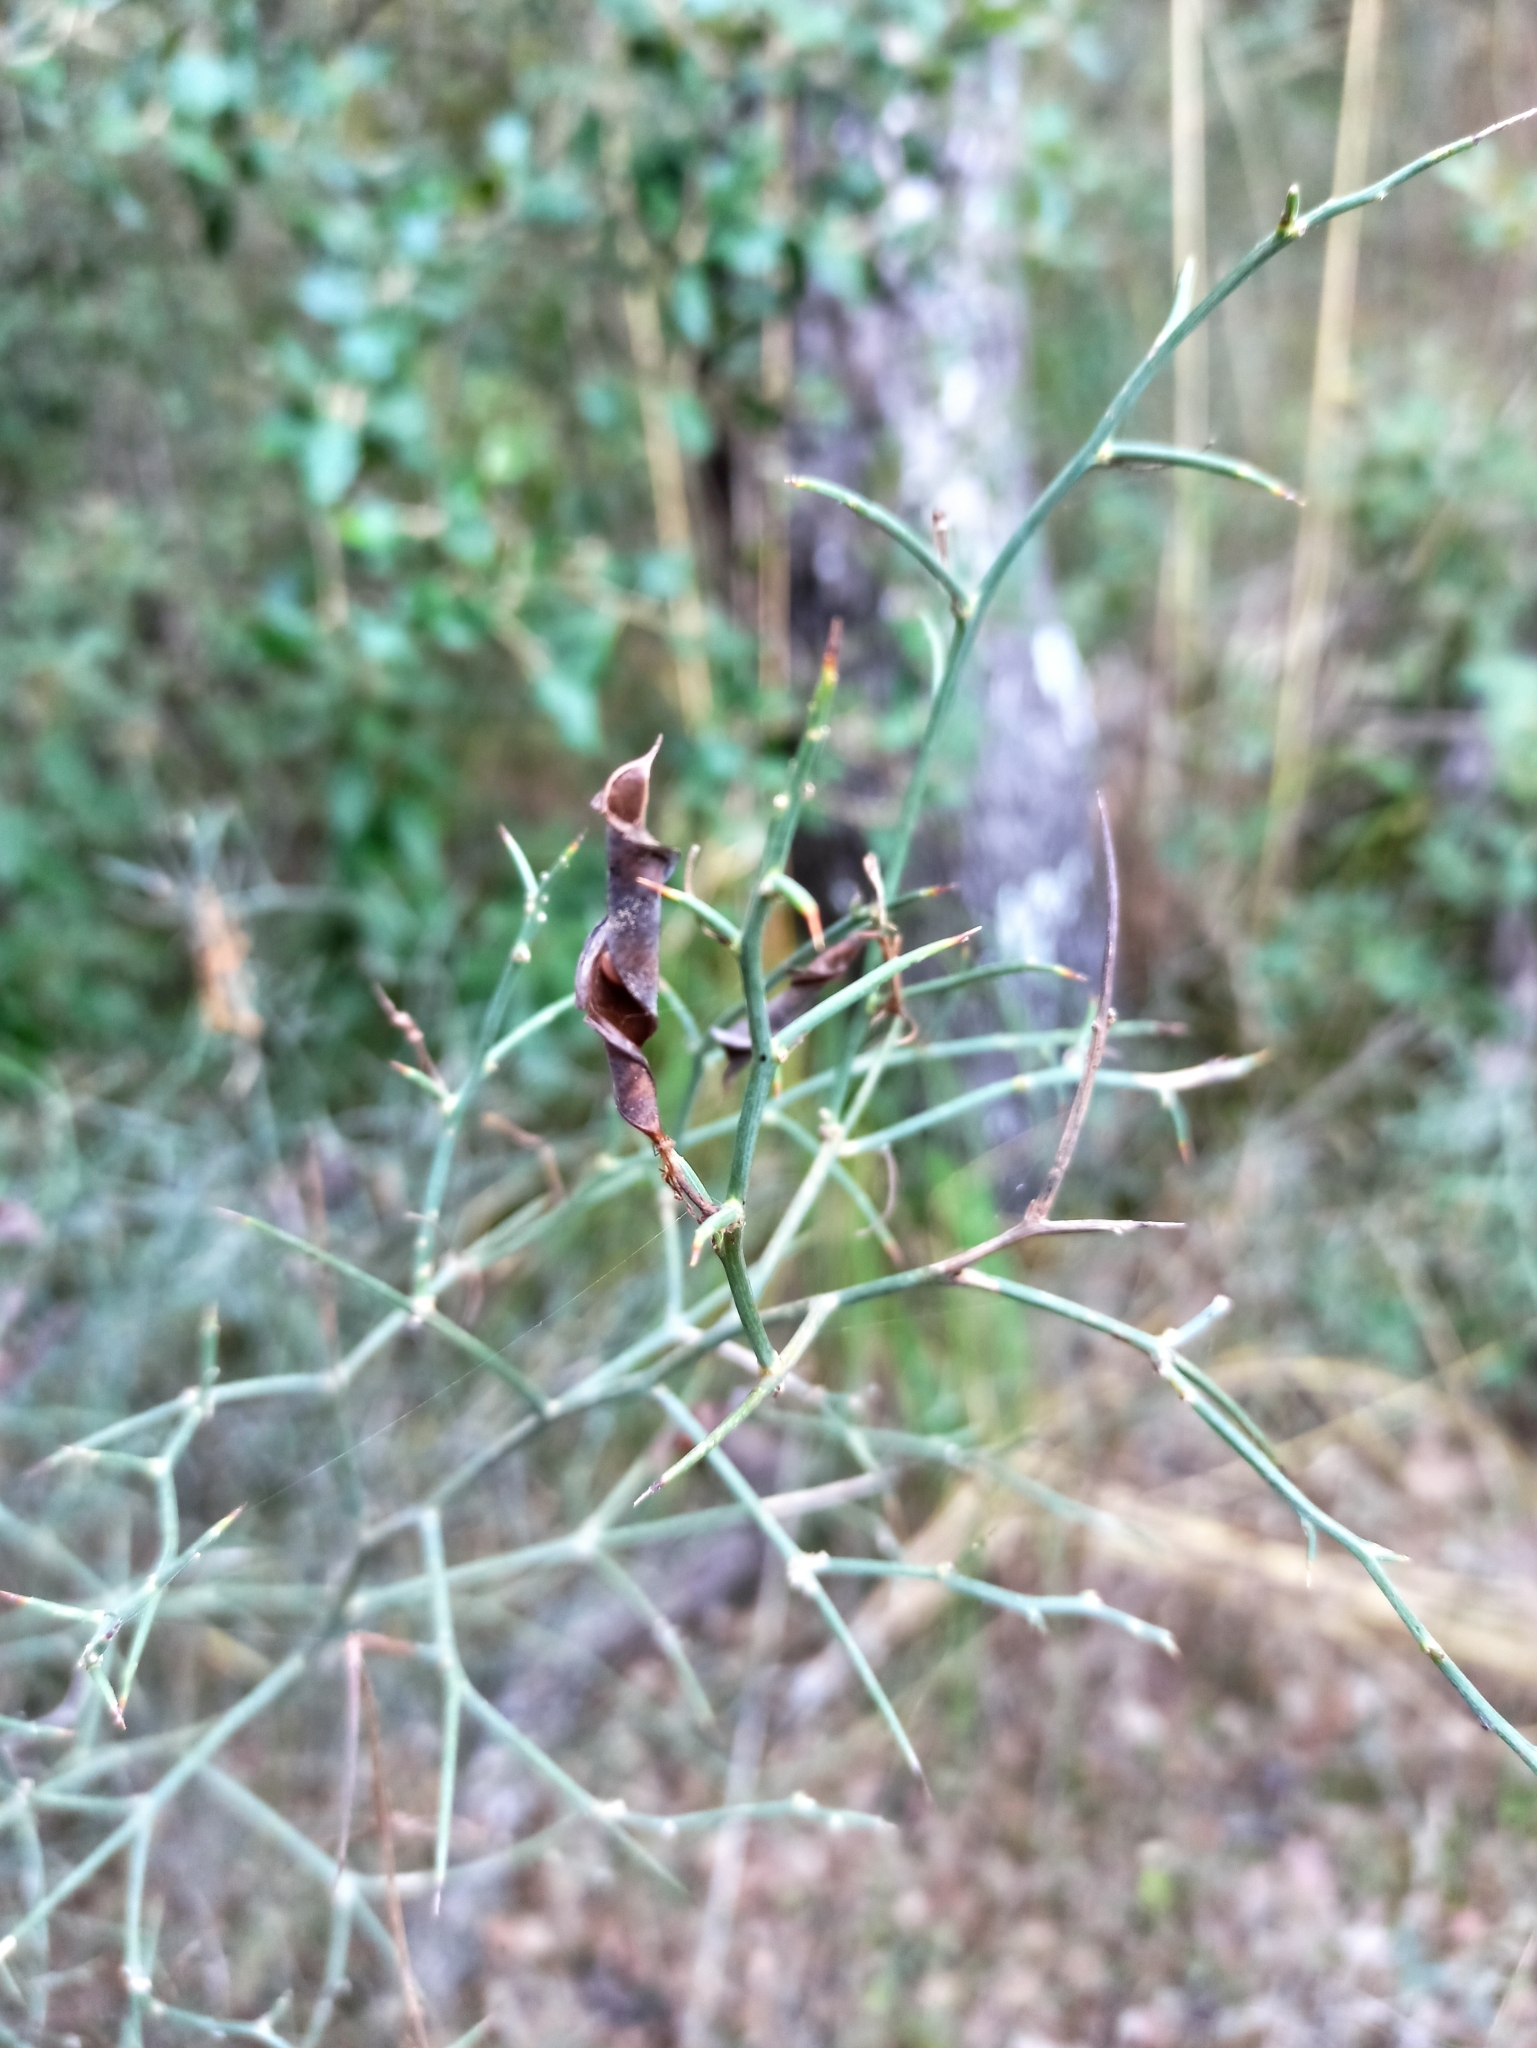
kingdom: Plantae
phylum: Tracheophyta
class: Magnoliopsida
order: Fabales
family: Fabaceae
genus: Calicotome
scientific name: Calicotome spinosa
